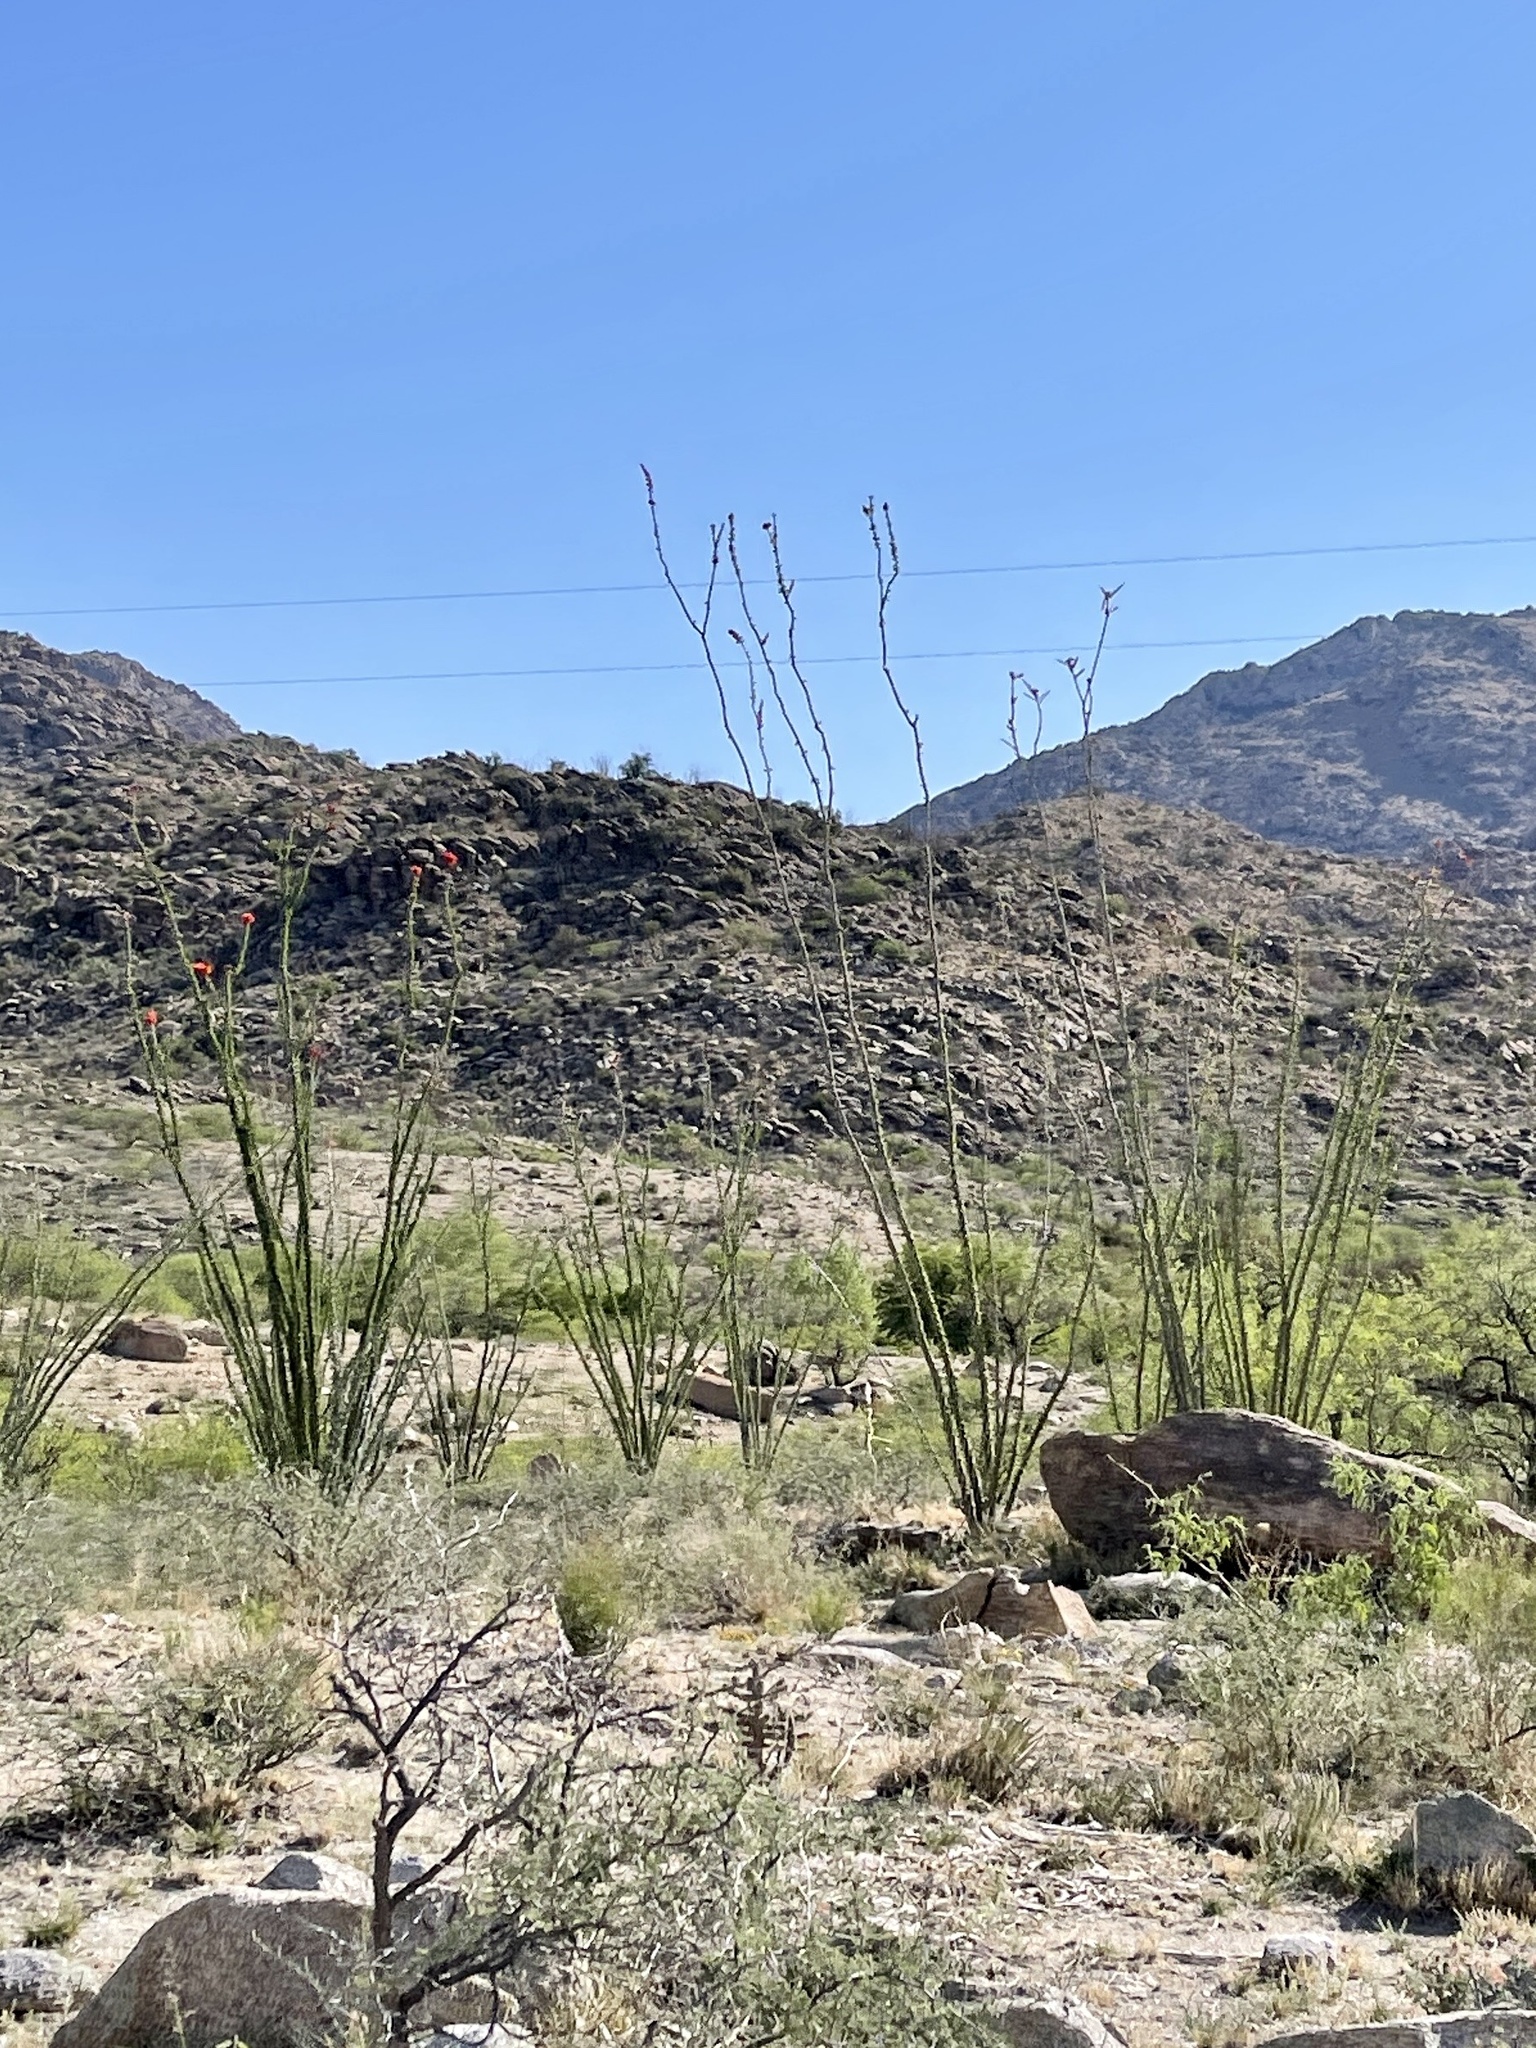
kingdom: Plantae
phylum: Tracheophyta
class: Magnoliopsida
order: Ericales
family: Fouquieriaceae
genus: Fouquieria
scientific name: Fouquieria splendens
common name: Vine-cactus
